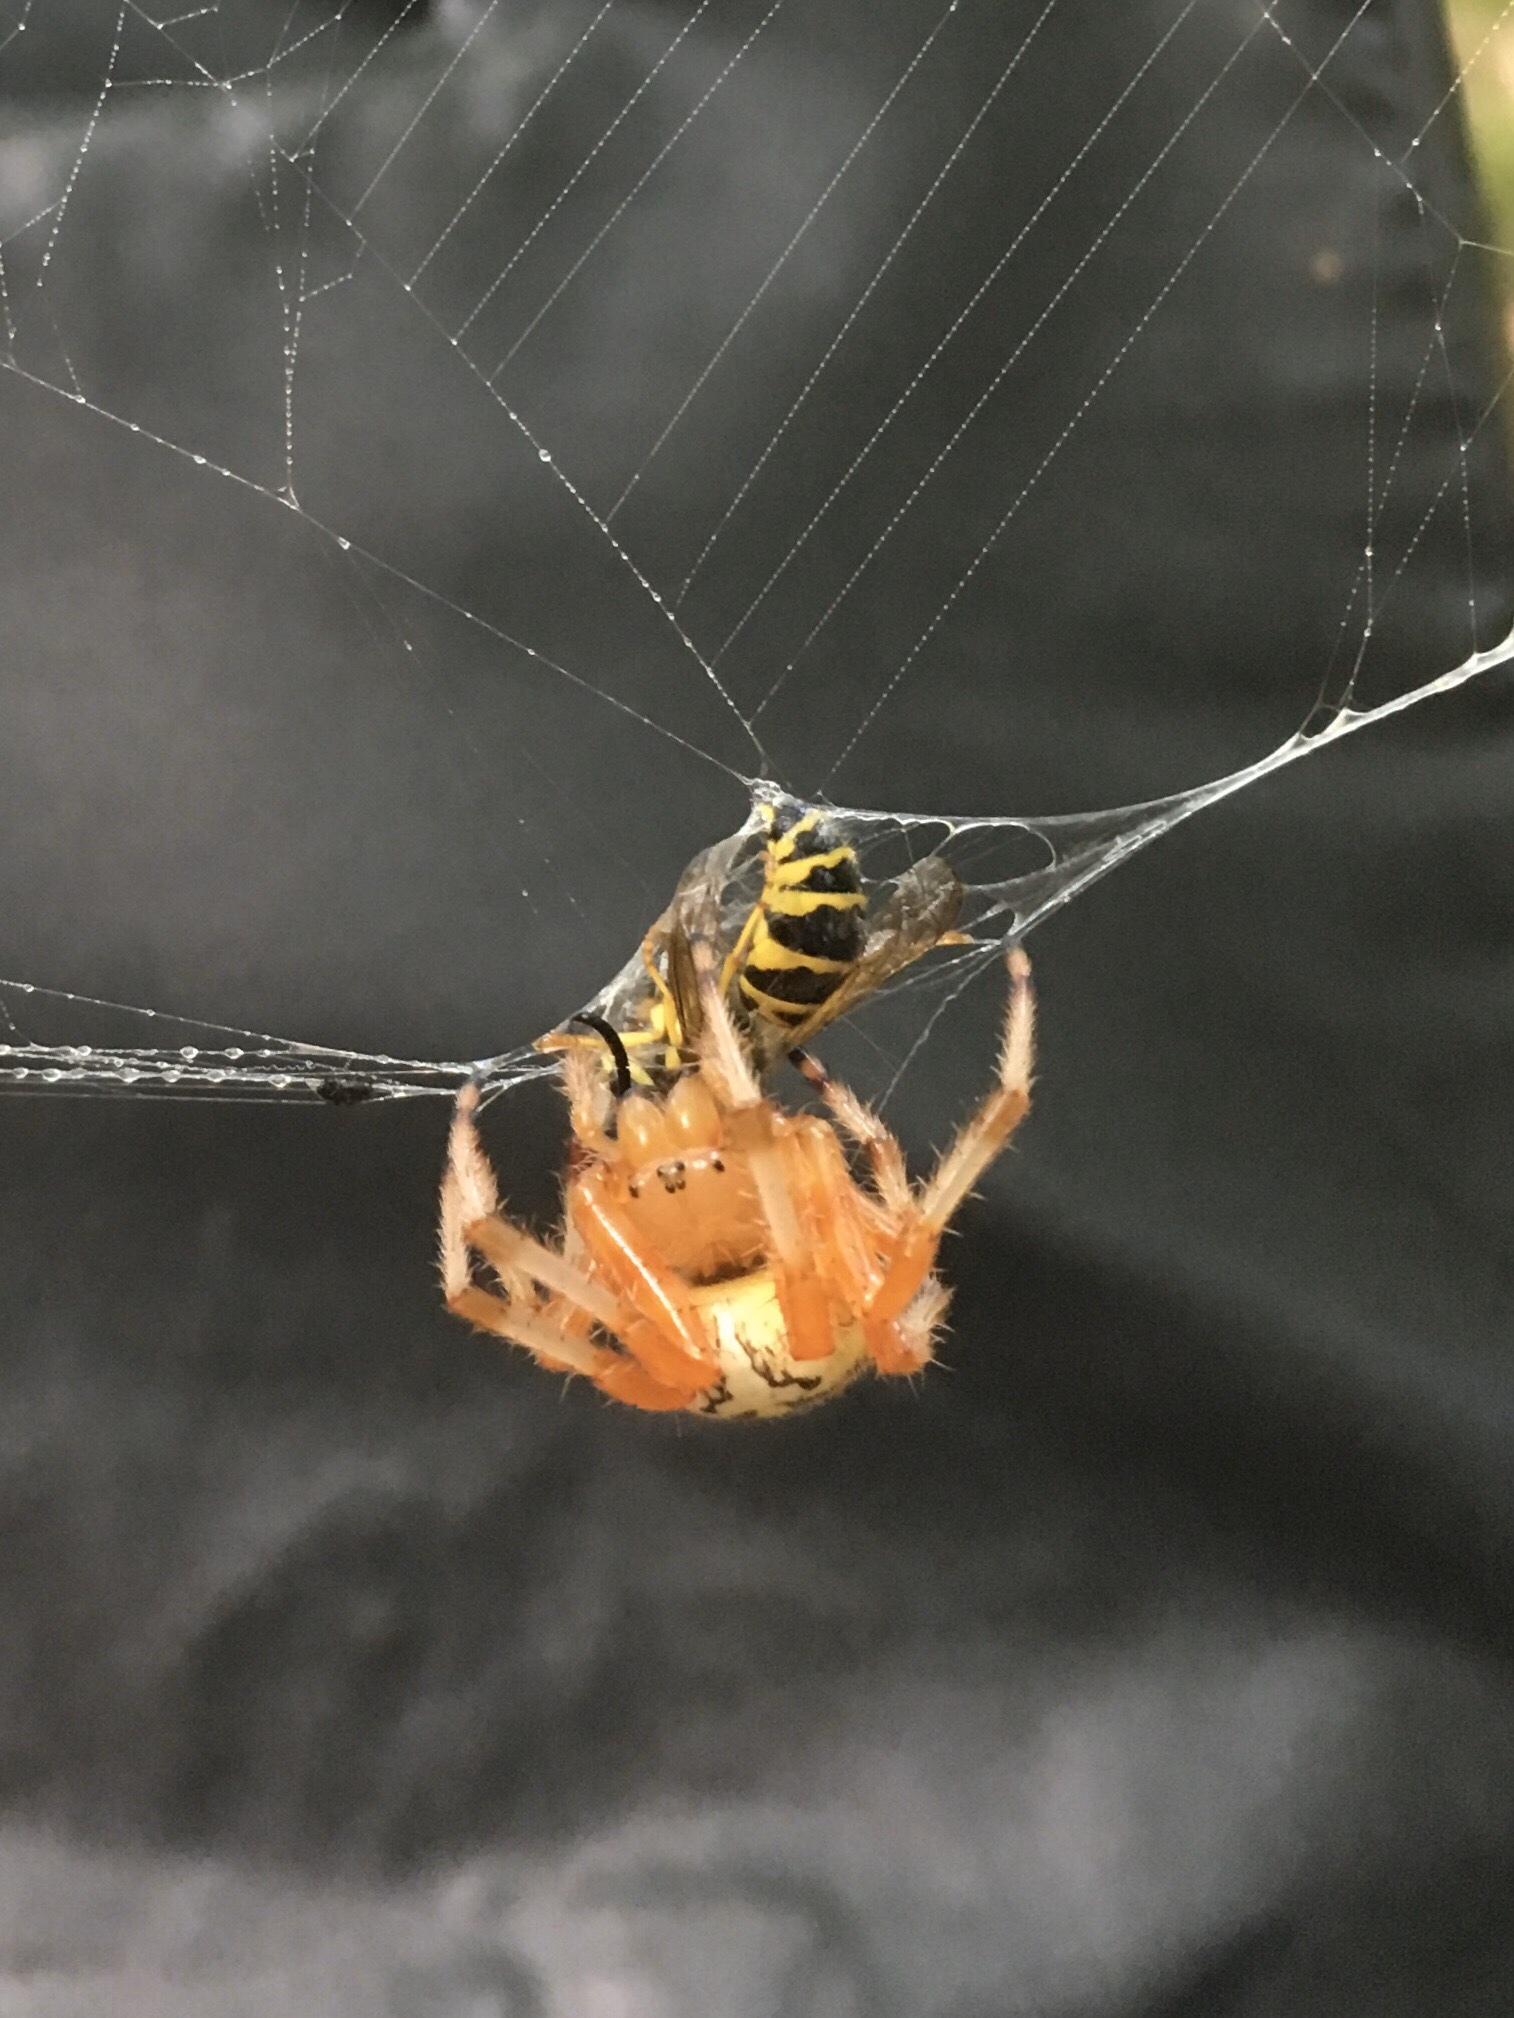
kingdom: Animalia
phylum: Arthropoda
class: Arachnida
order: Araneae
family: Araneidae
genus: Araneus
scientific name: Araneus marmoreus
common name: Marbled orbweaver
